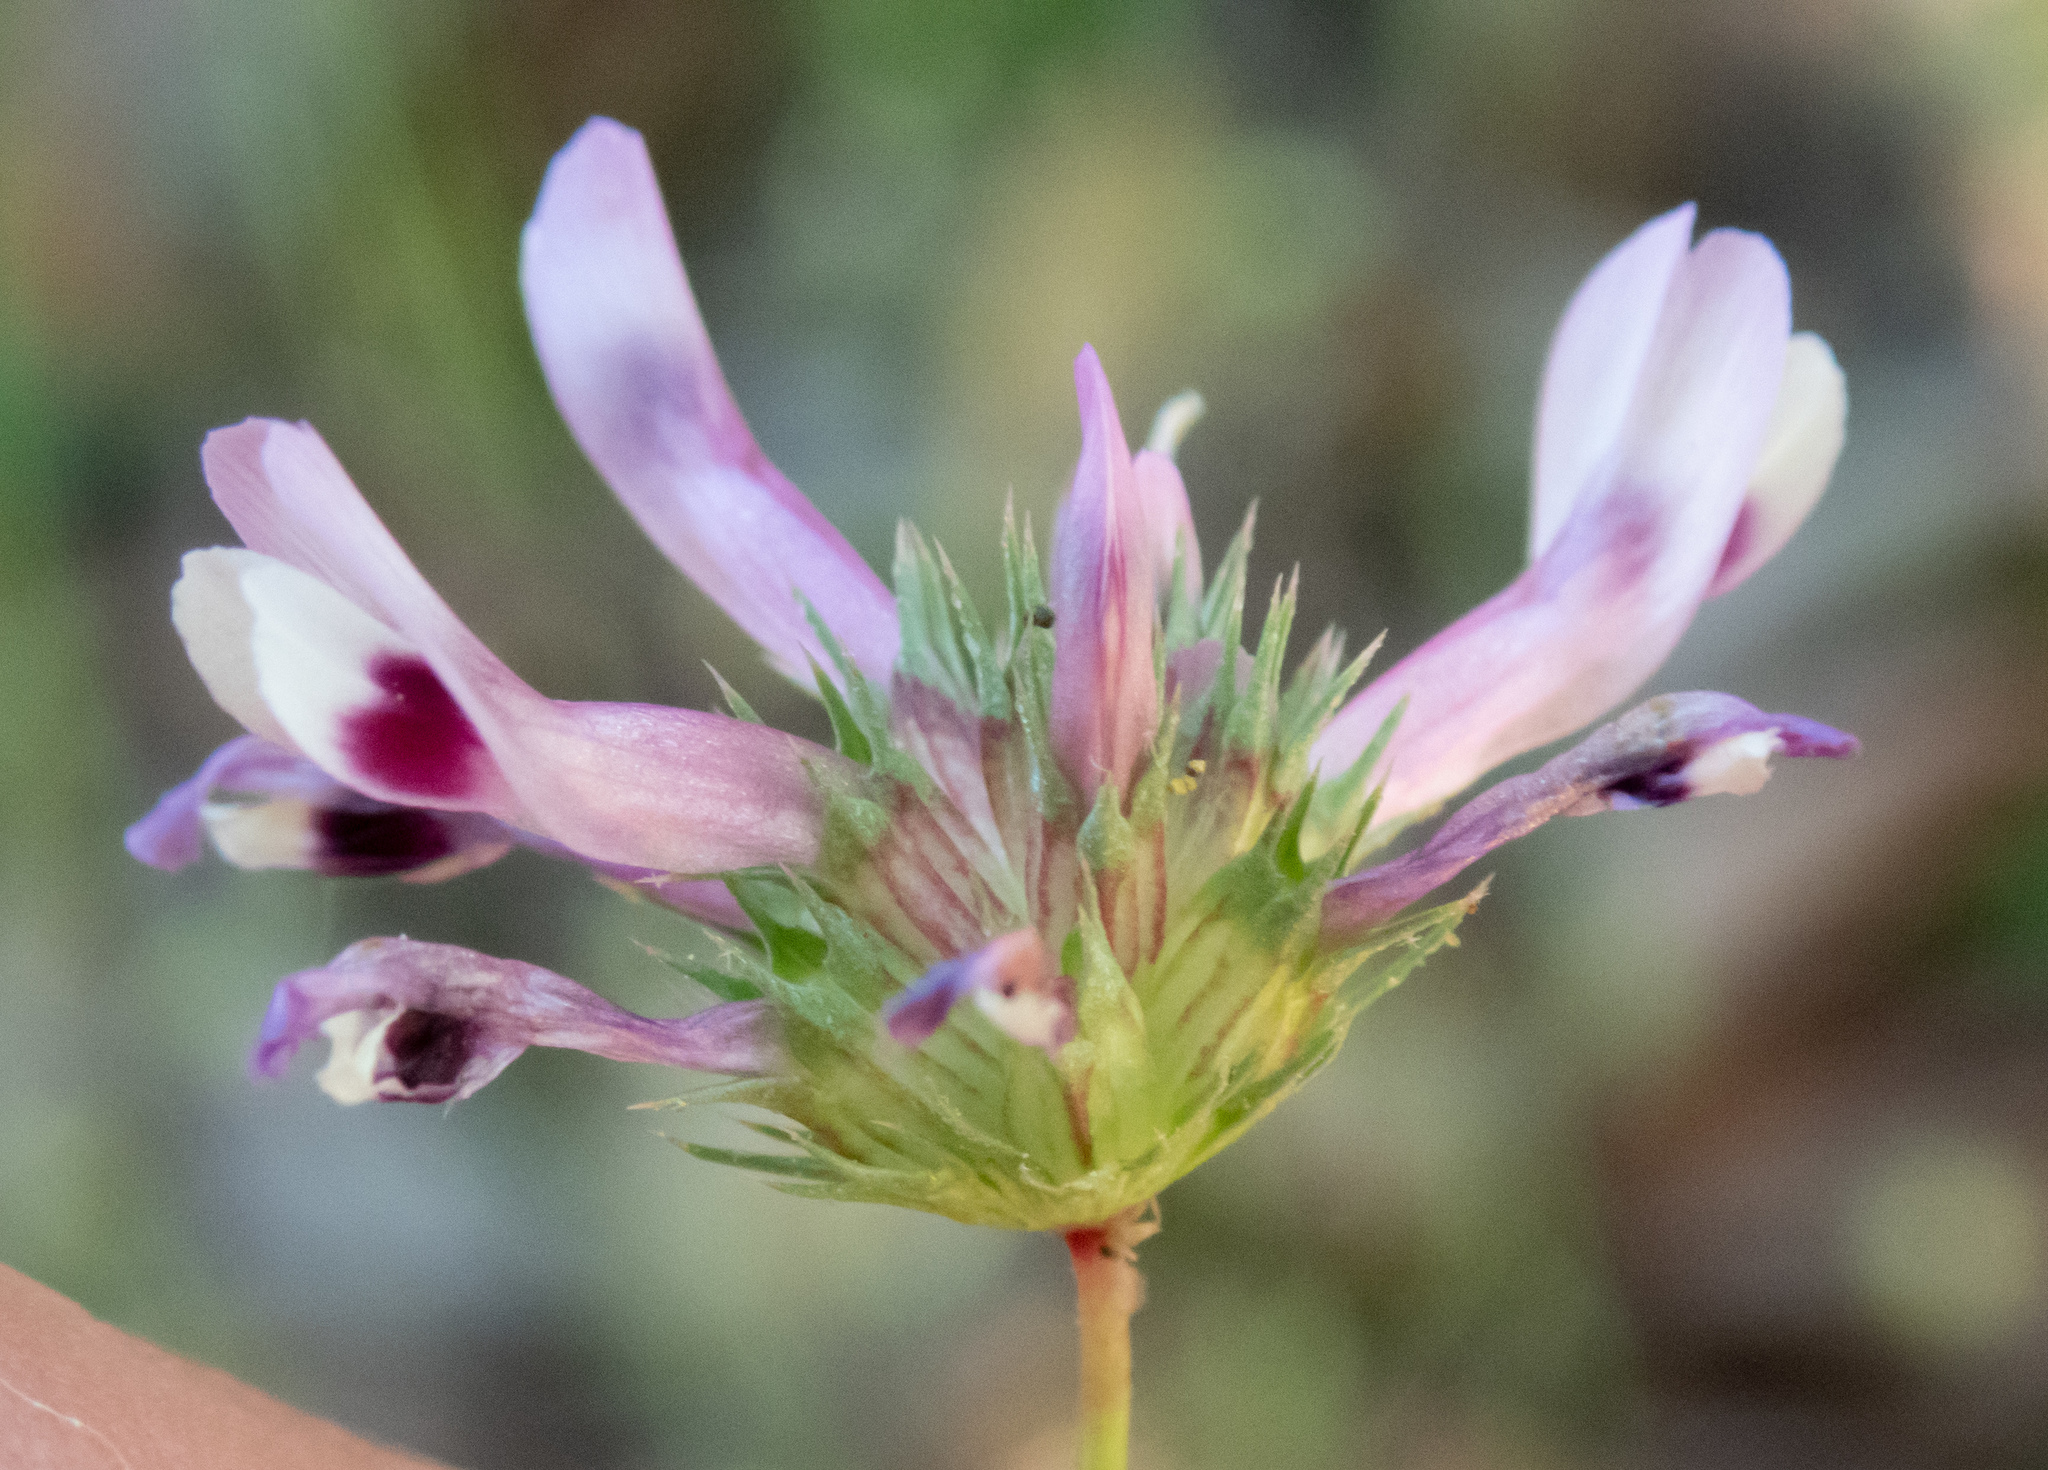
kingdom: Plantae
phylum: Tracheophyta
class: Magnoliopsida
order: Fabales
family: Fabaceae
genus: Trifolium
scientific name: Trifolium willdenovii
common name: Tomcat clover
